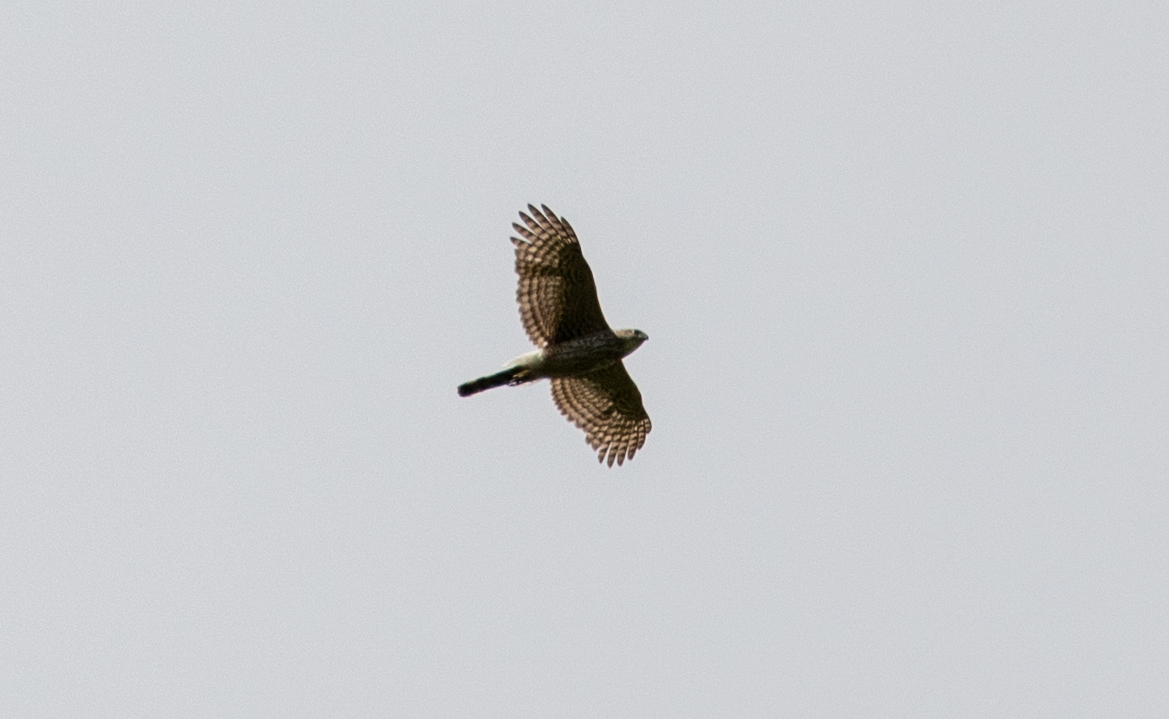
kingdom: Animalia
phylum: Chordata
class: Aves
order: Accipitriformes
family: Accipitridae
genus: Accipiter
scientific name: Accipiter cooperii
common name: Cooper's hawk
